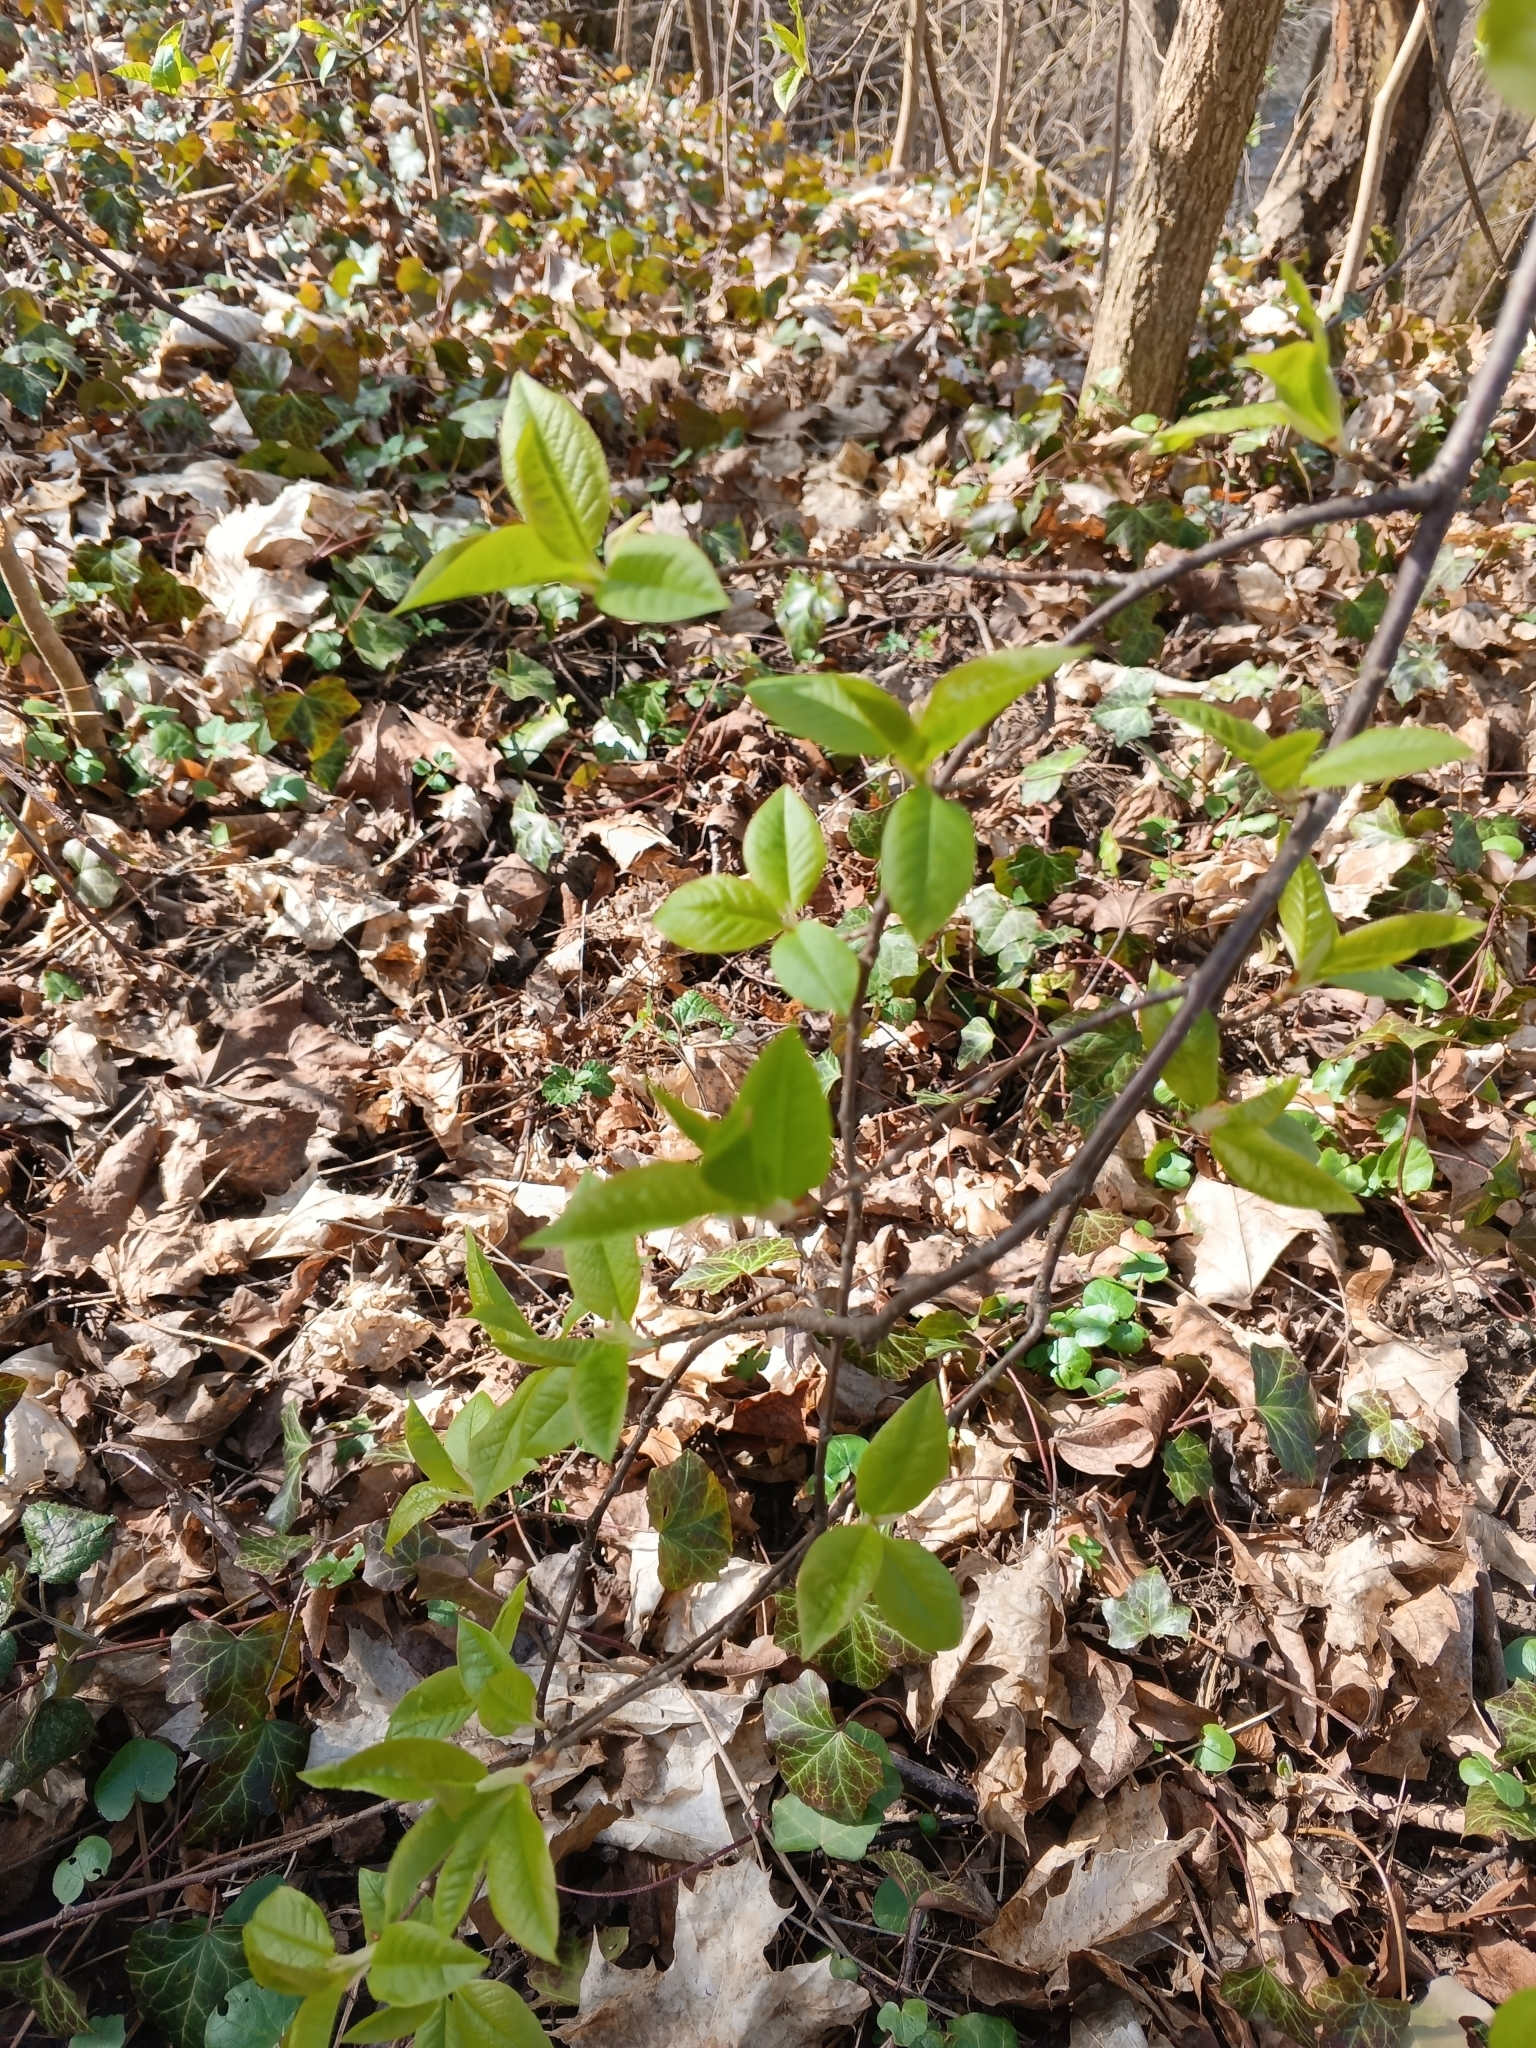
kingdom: Plantae
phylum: Tracheophyta
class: Magnoliopsida
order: Rosales
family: Rosaceae
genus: Prunus
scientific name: Prunus padus
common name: Bird cherry
